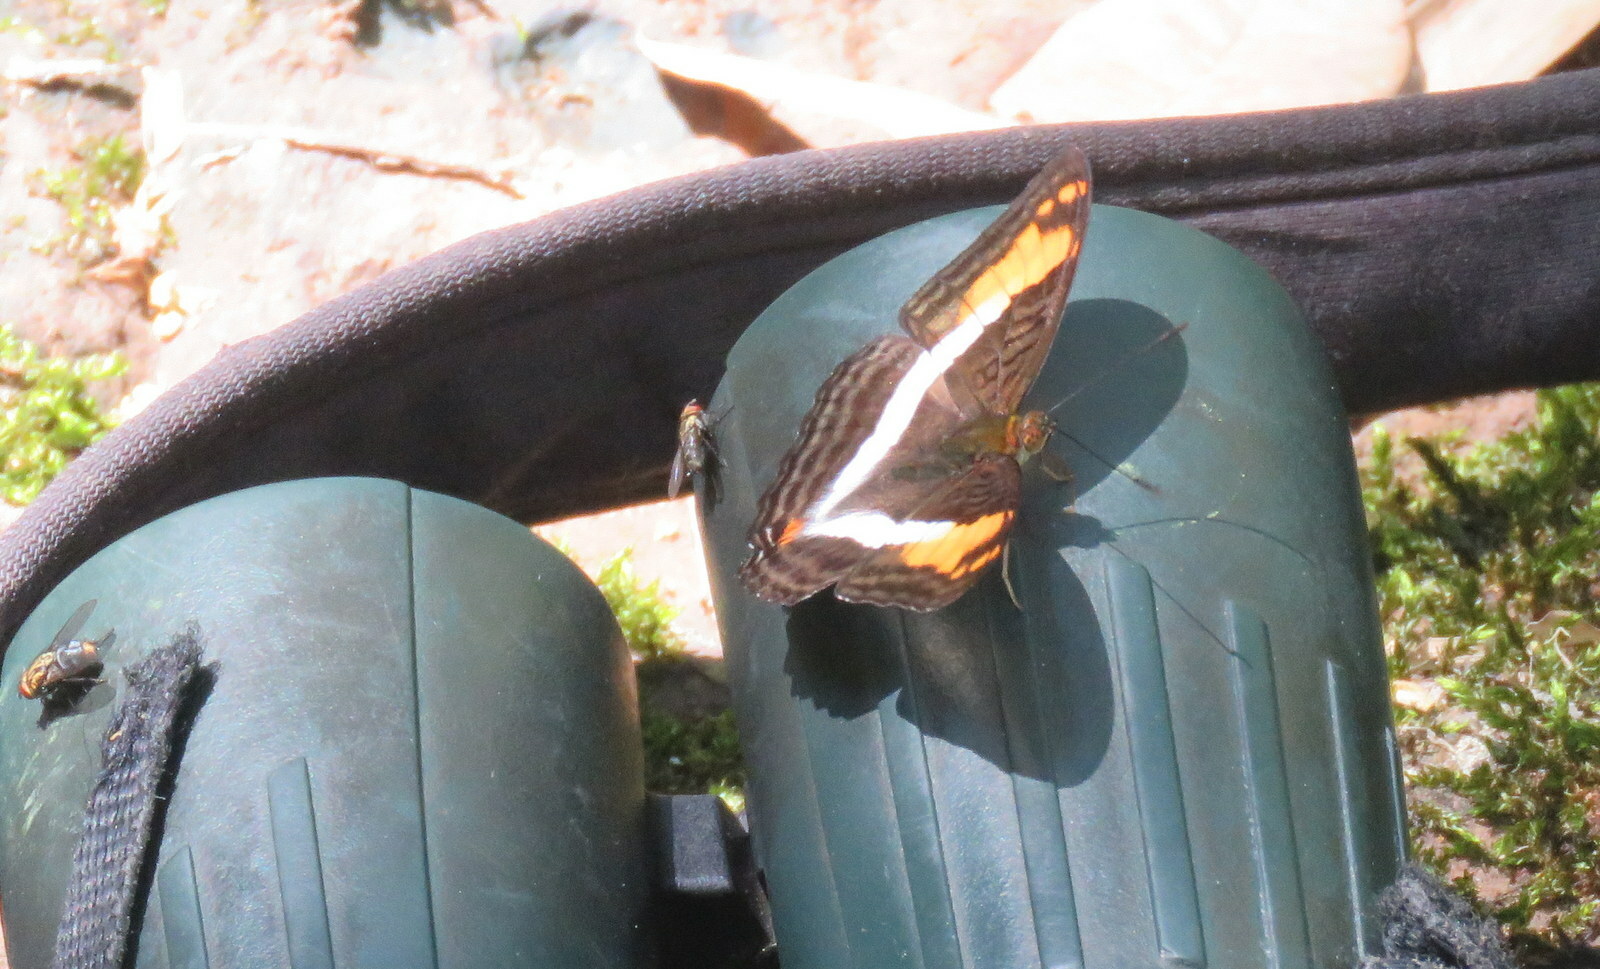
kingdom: Animalia
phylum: Arthropoda
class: Insecta
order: Lepidoptera
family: Nymphalidae
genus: Limenitis
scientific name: Limenitis malea
